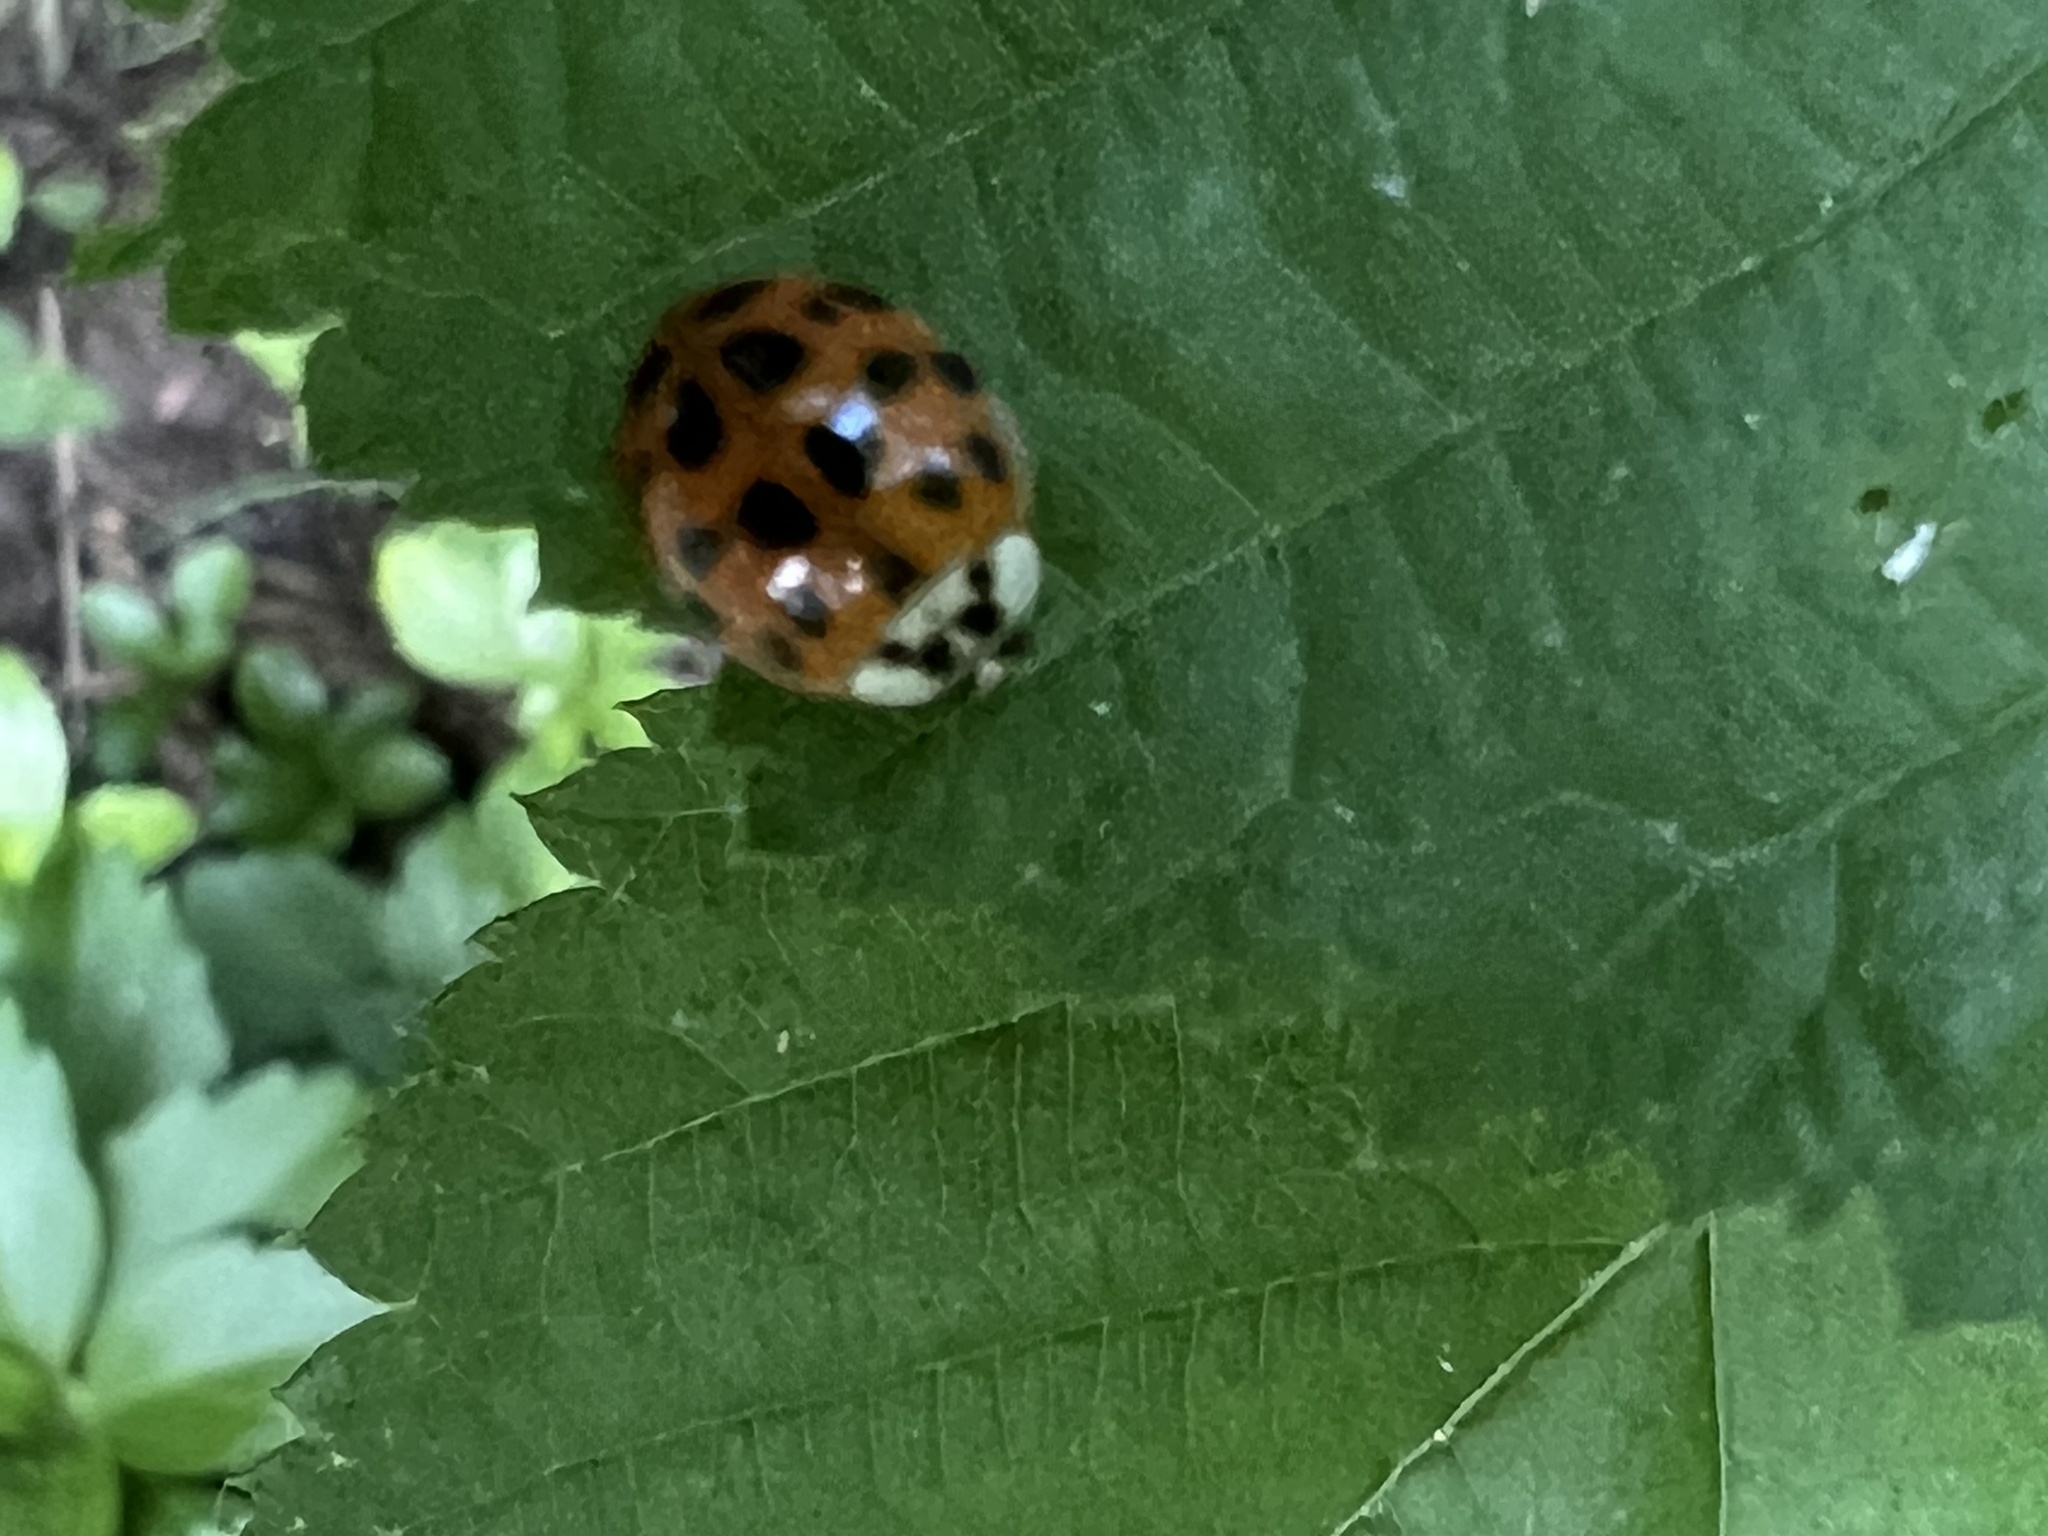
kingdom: Animalia
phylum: Arthropoda
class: Insecta
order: Coleoptera
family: Coccinellidae
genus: Harmonia
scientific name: Harmonia axyridis
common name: Harlequin ladybird
